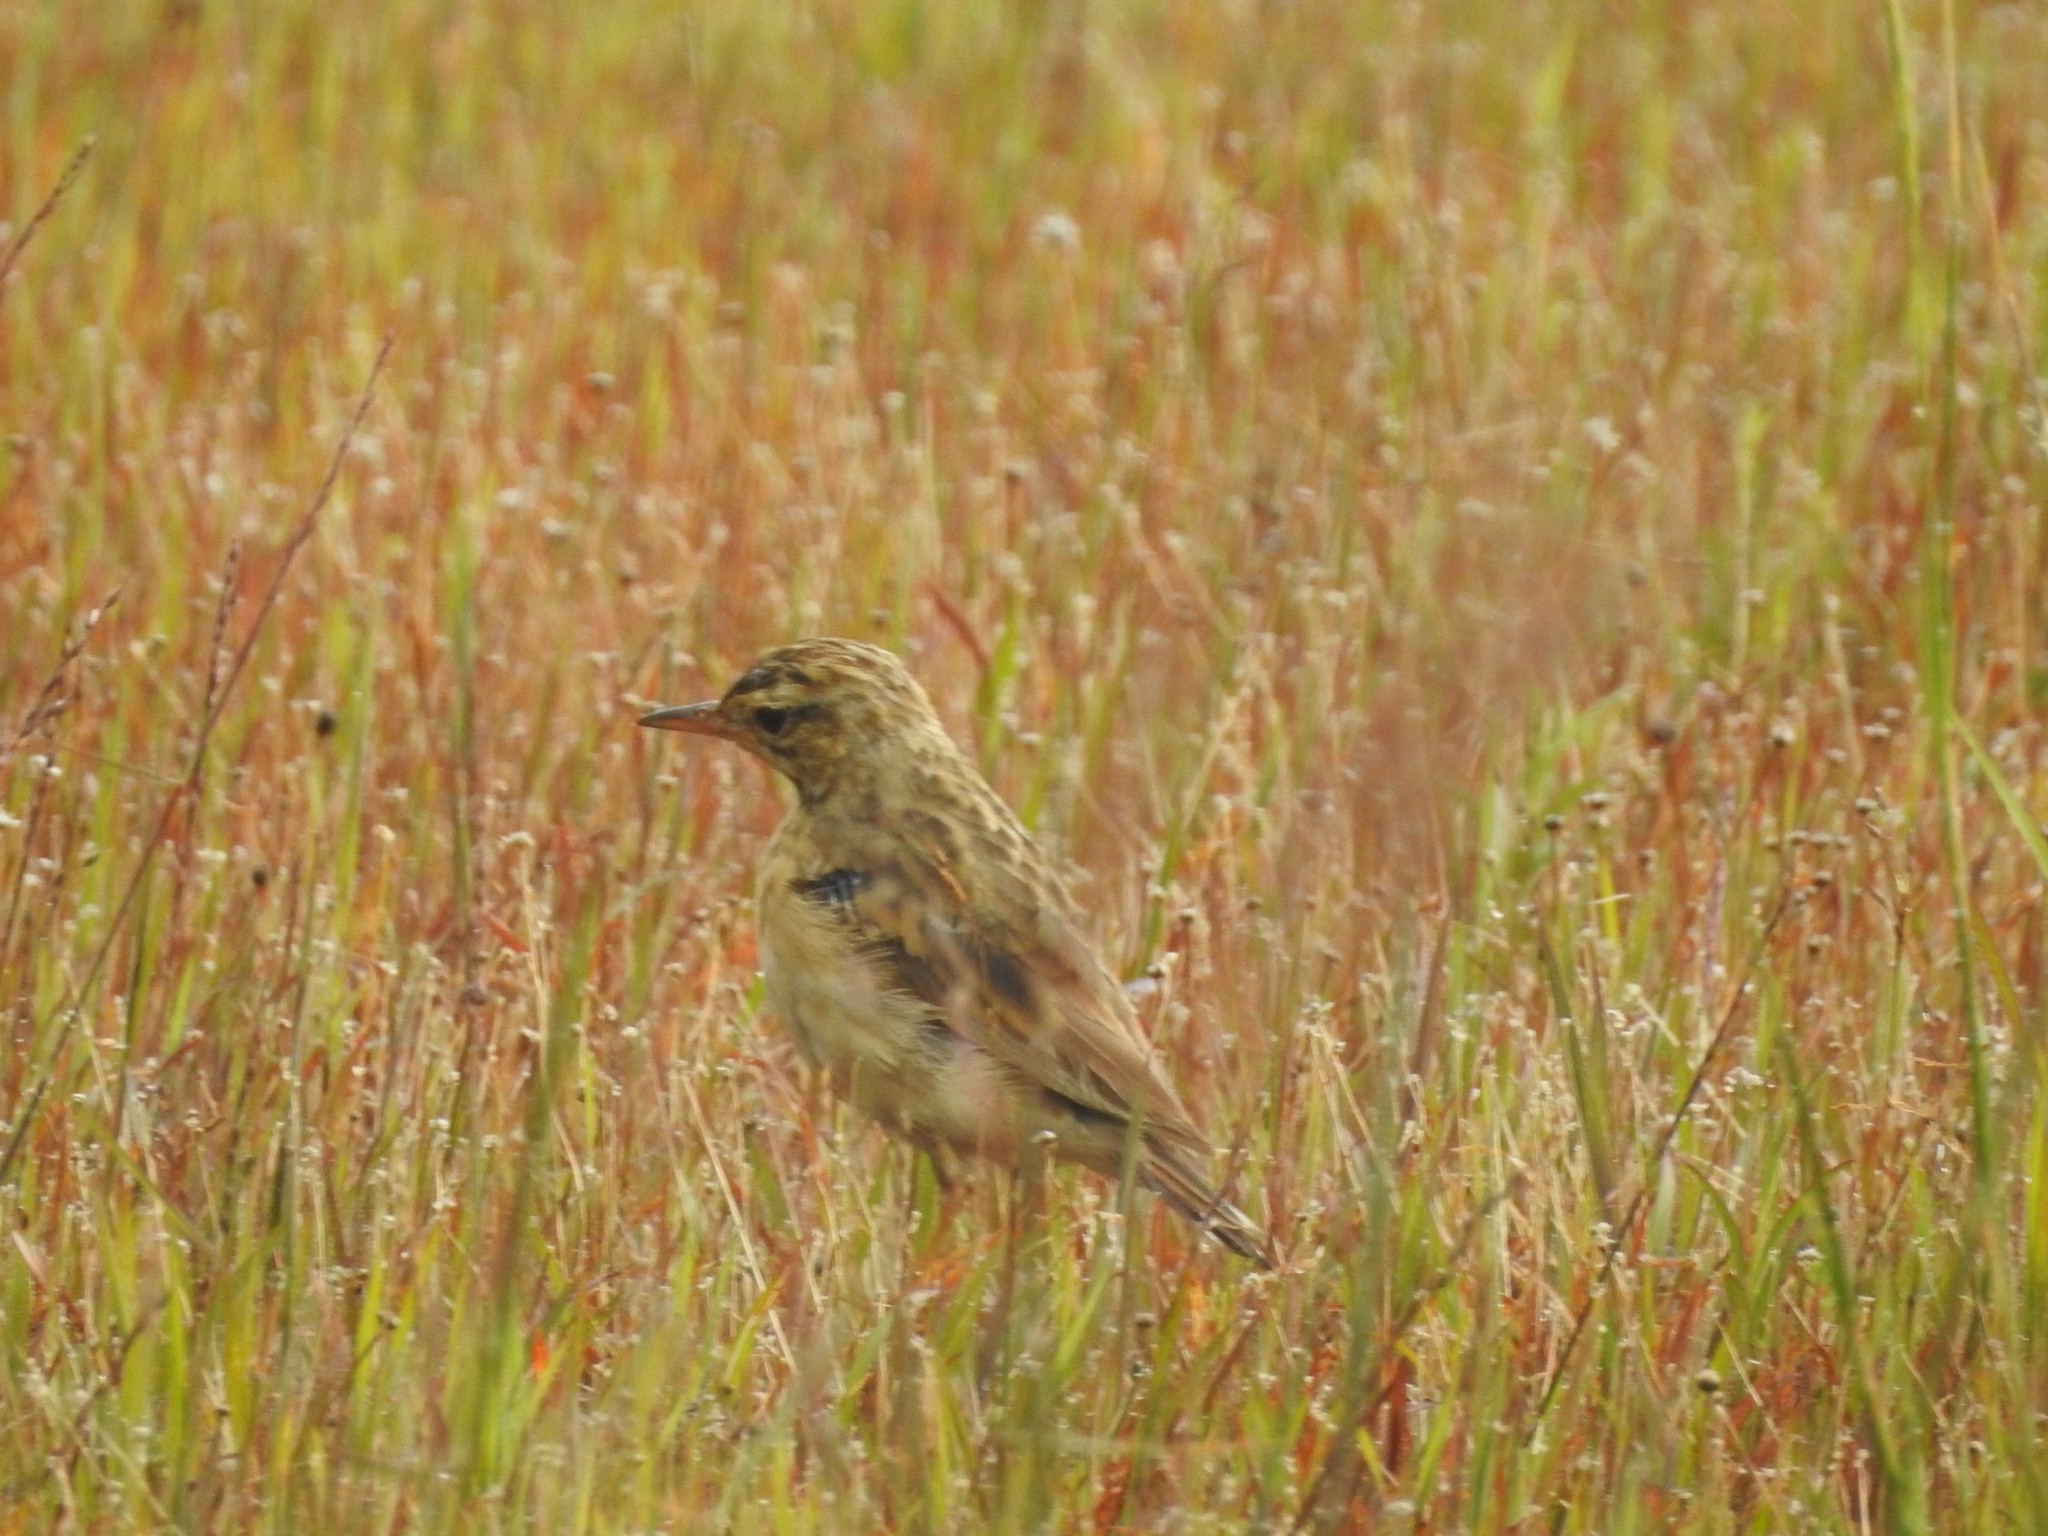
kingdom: Animalia
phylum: Chordata
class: Aves
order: Passeriformes
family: Motacillidae
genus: Anthus
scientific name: Anthus rufulus
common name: Paddyfield pipit
